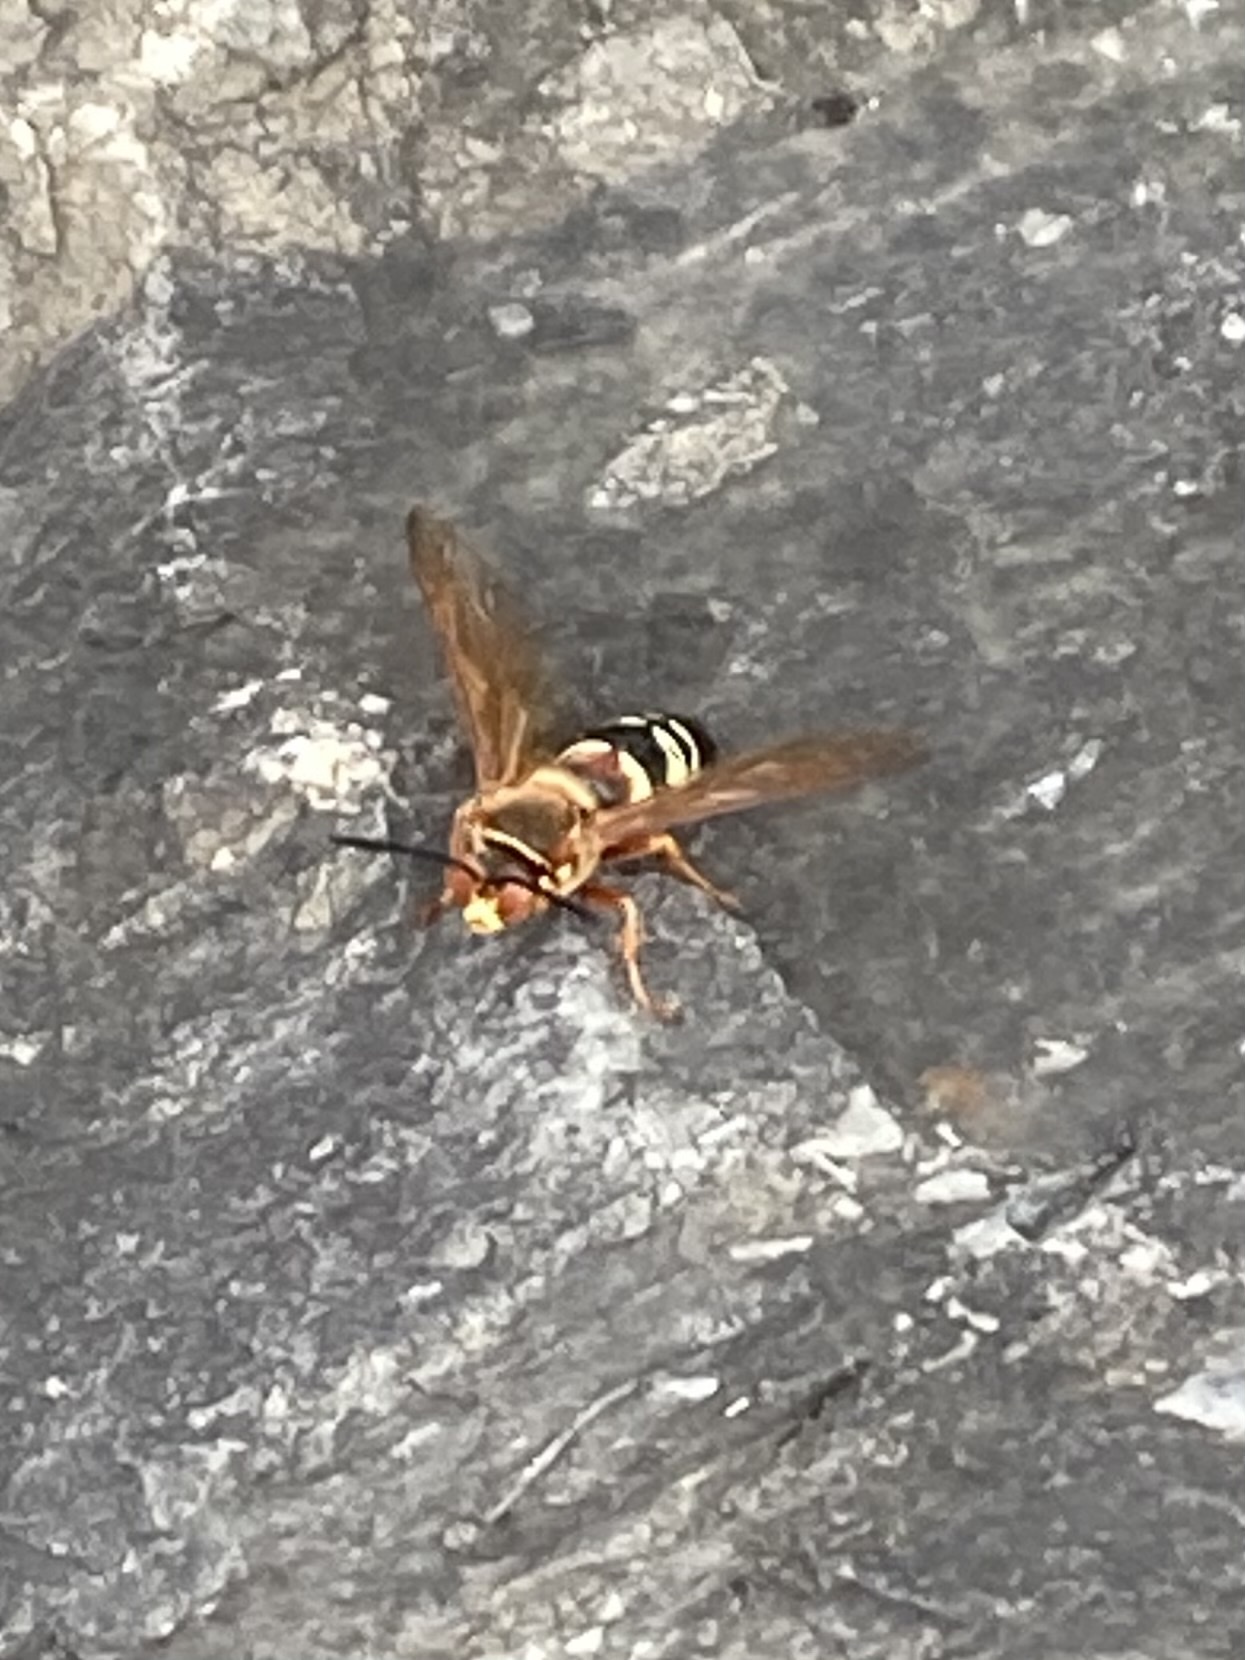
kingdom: Animalia
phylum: Arthropoda
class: Insecta
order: Hymenoptera
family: Crabronidae
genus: Sphecius
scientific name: Sphecius speciosus
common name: Cicada killer
